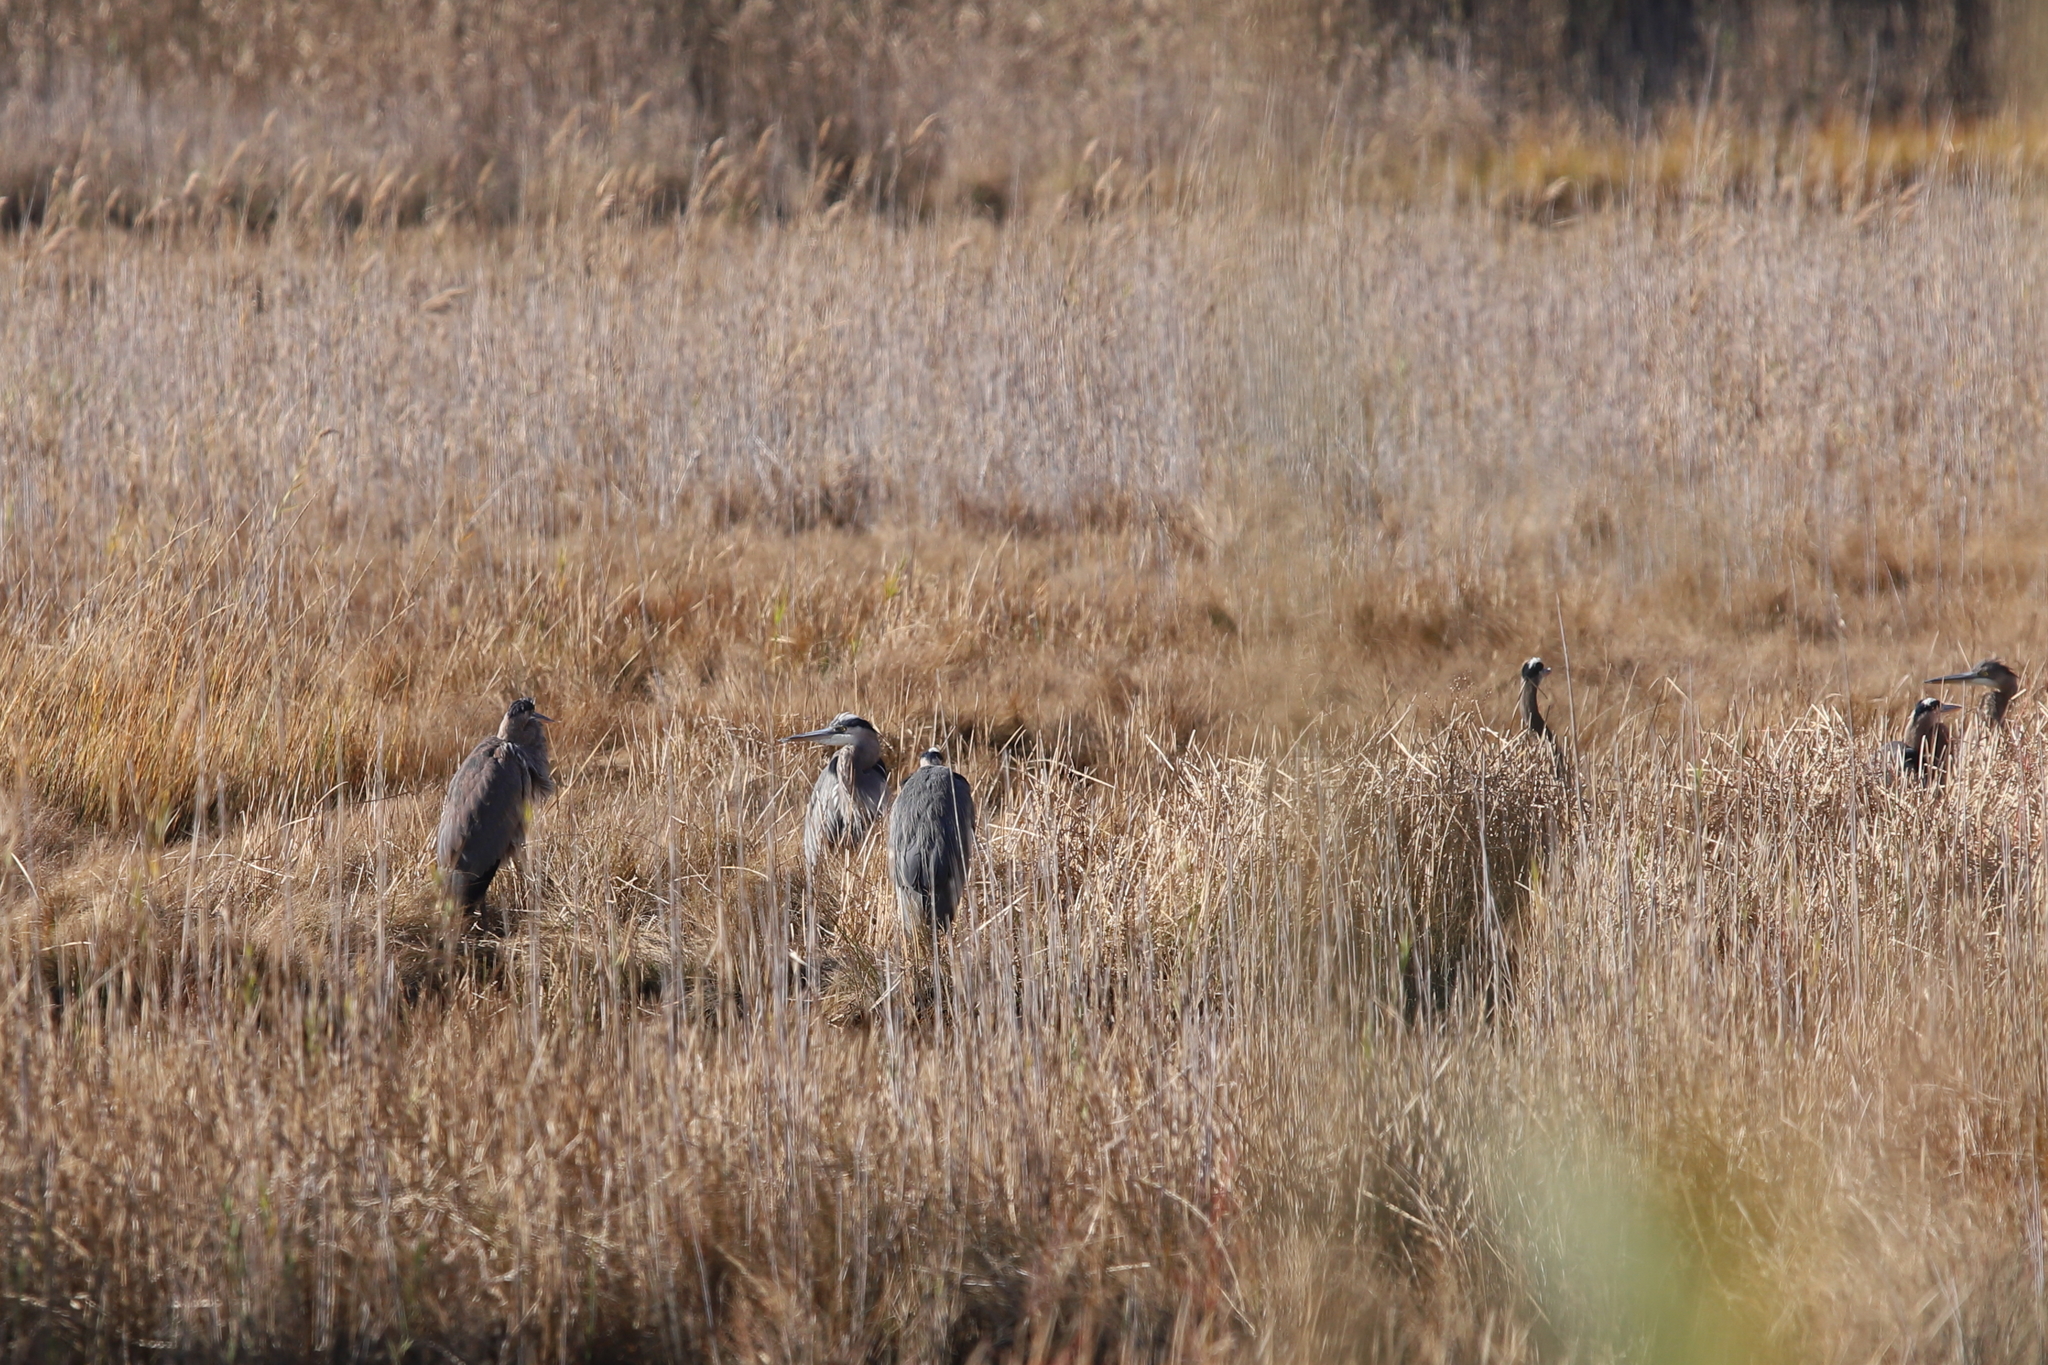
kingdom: Animalia
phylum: Chordata
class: Aves
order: Pelecaniformes
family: Ardeidae
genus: Ardea
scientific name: Ardea herodias
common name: Great blue heron
